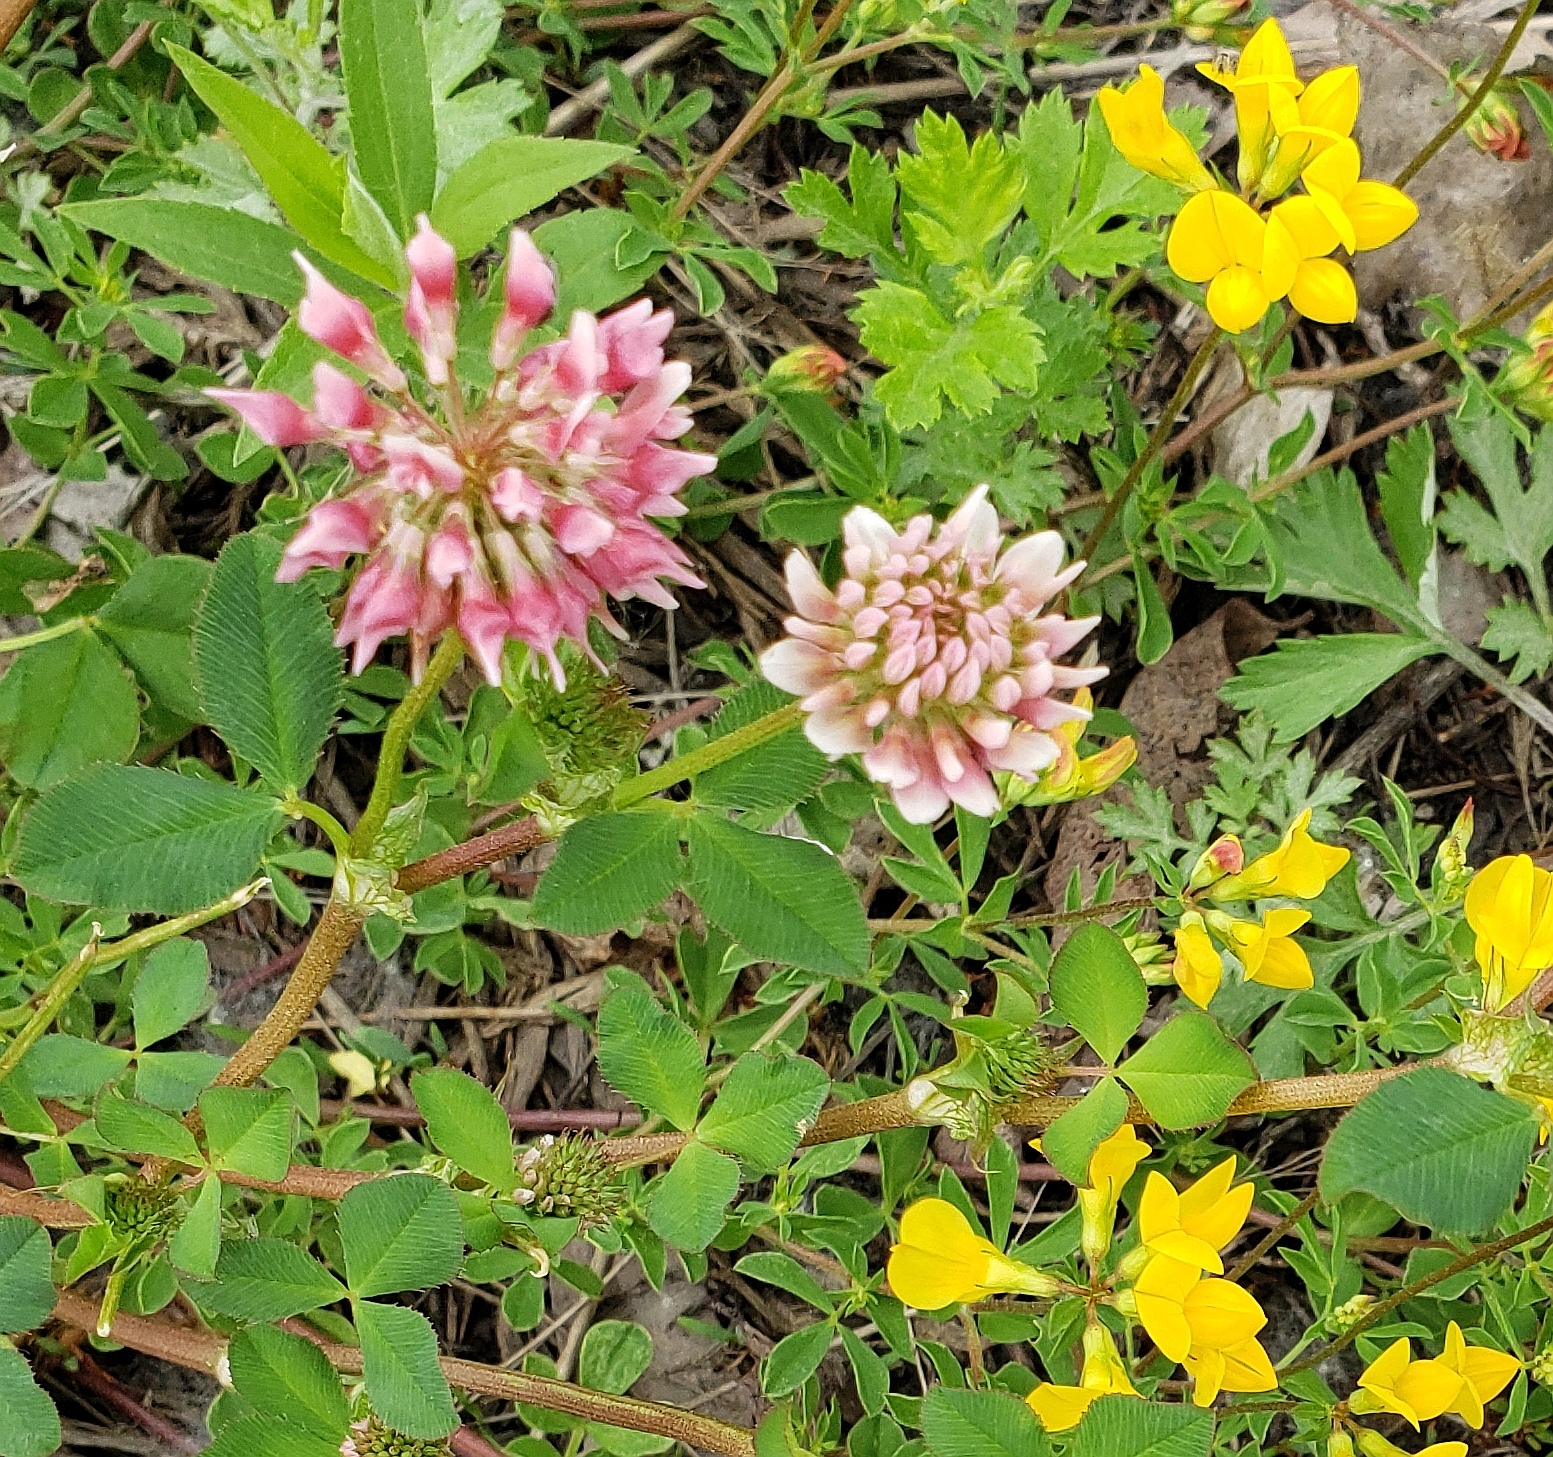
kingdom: Plantae
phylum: Tracheophyta
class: Magnoliopsida
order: Fabales
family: Fabaceae
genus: Trifolium
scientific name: Trifolium hybridum
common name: Alsike clover
